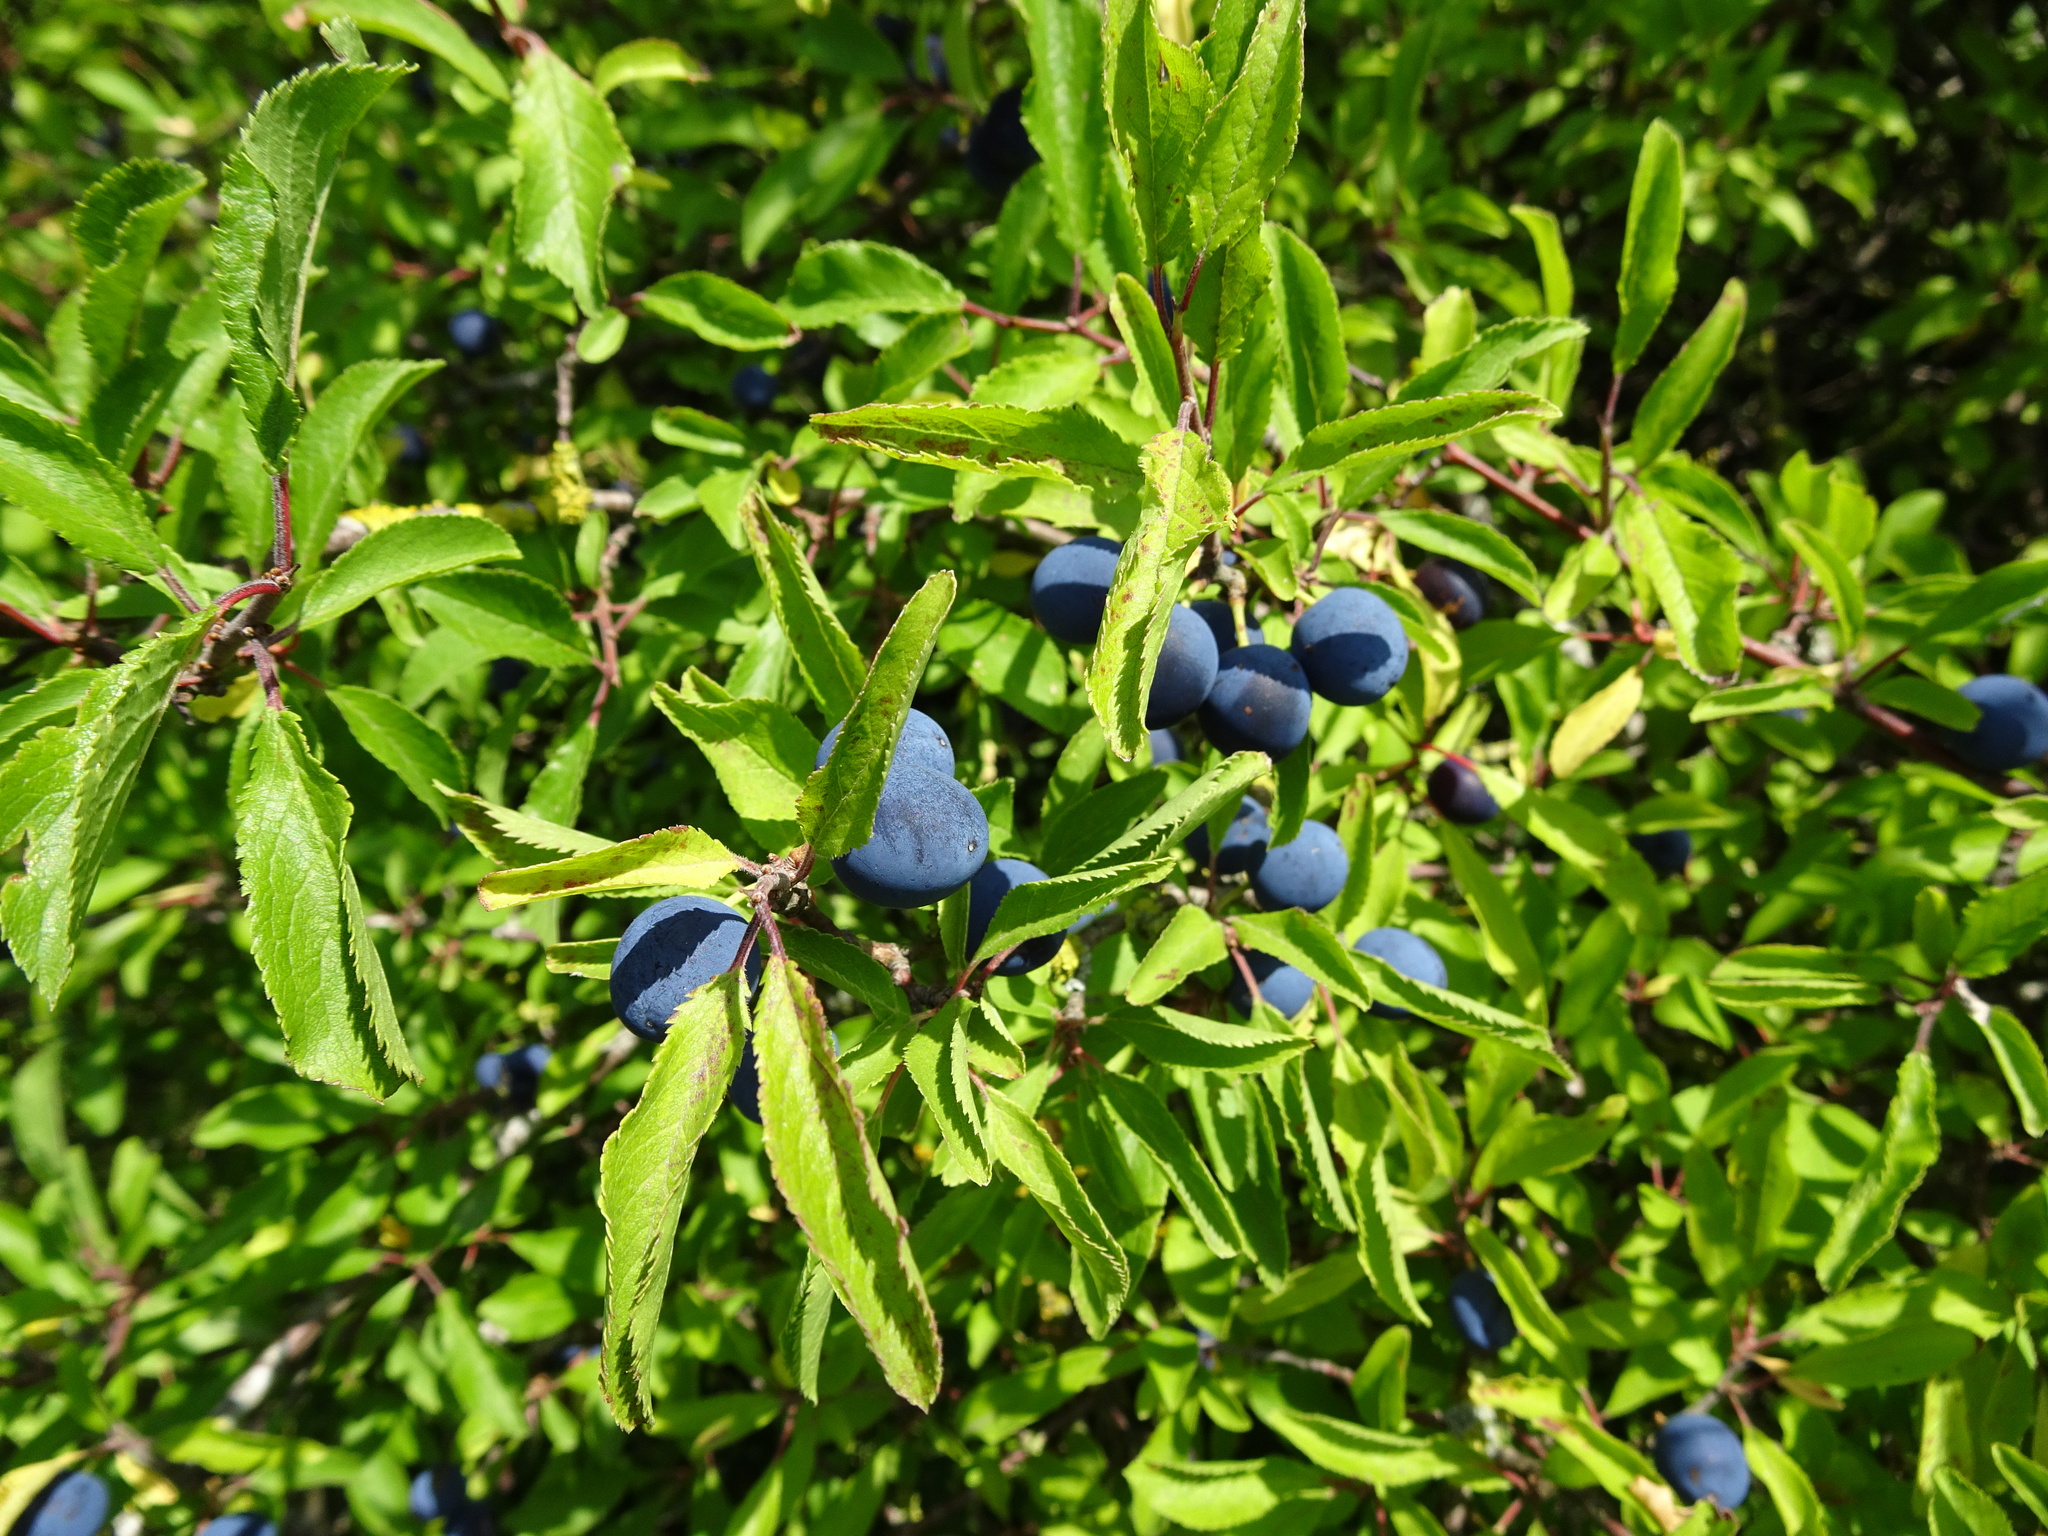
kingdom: Plantae
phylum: Tracheophyta
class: Magnoliopsida
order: Rosales
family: Rosaceae
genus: Prunus
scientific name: Prunus spinosa
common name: Blackthorn
